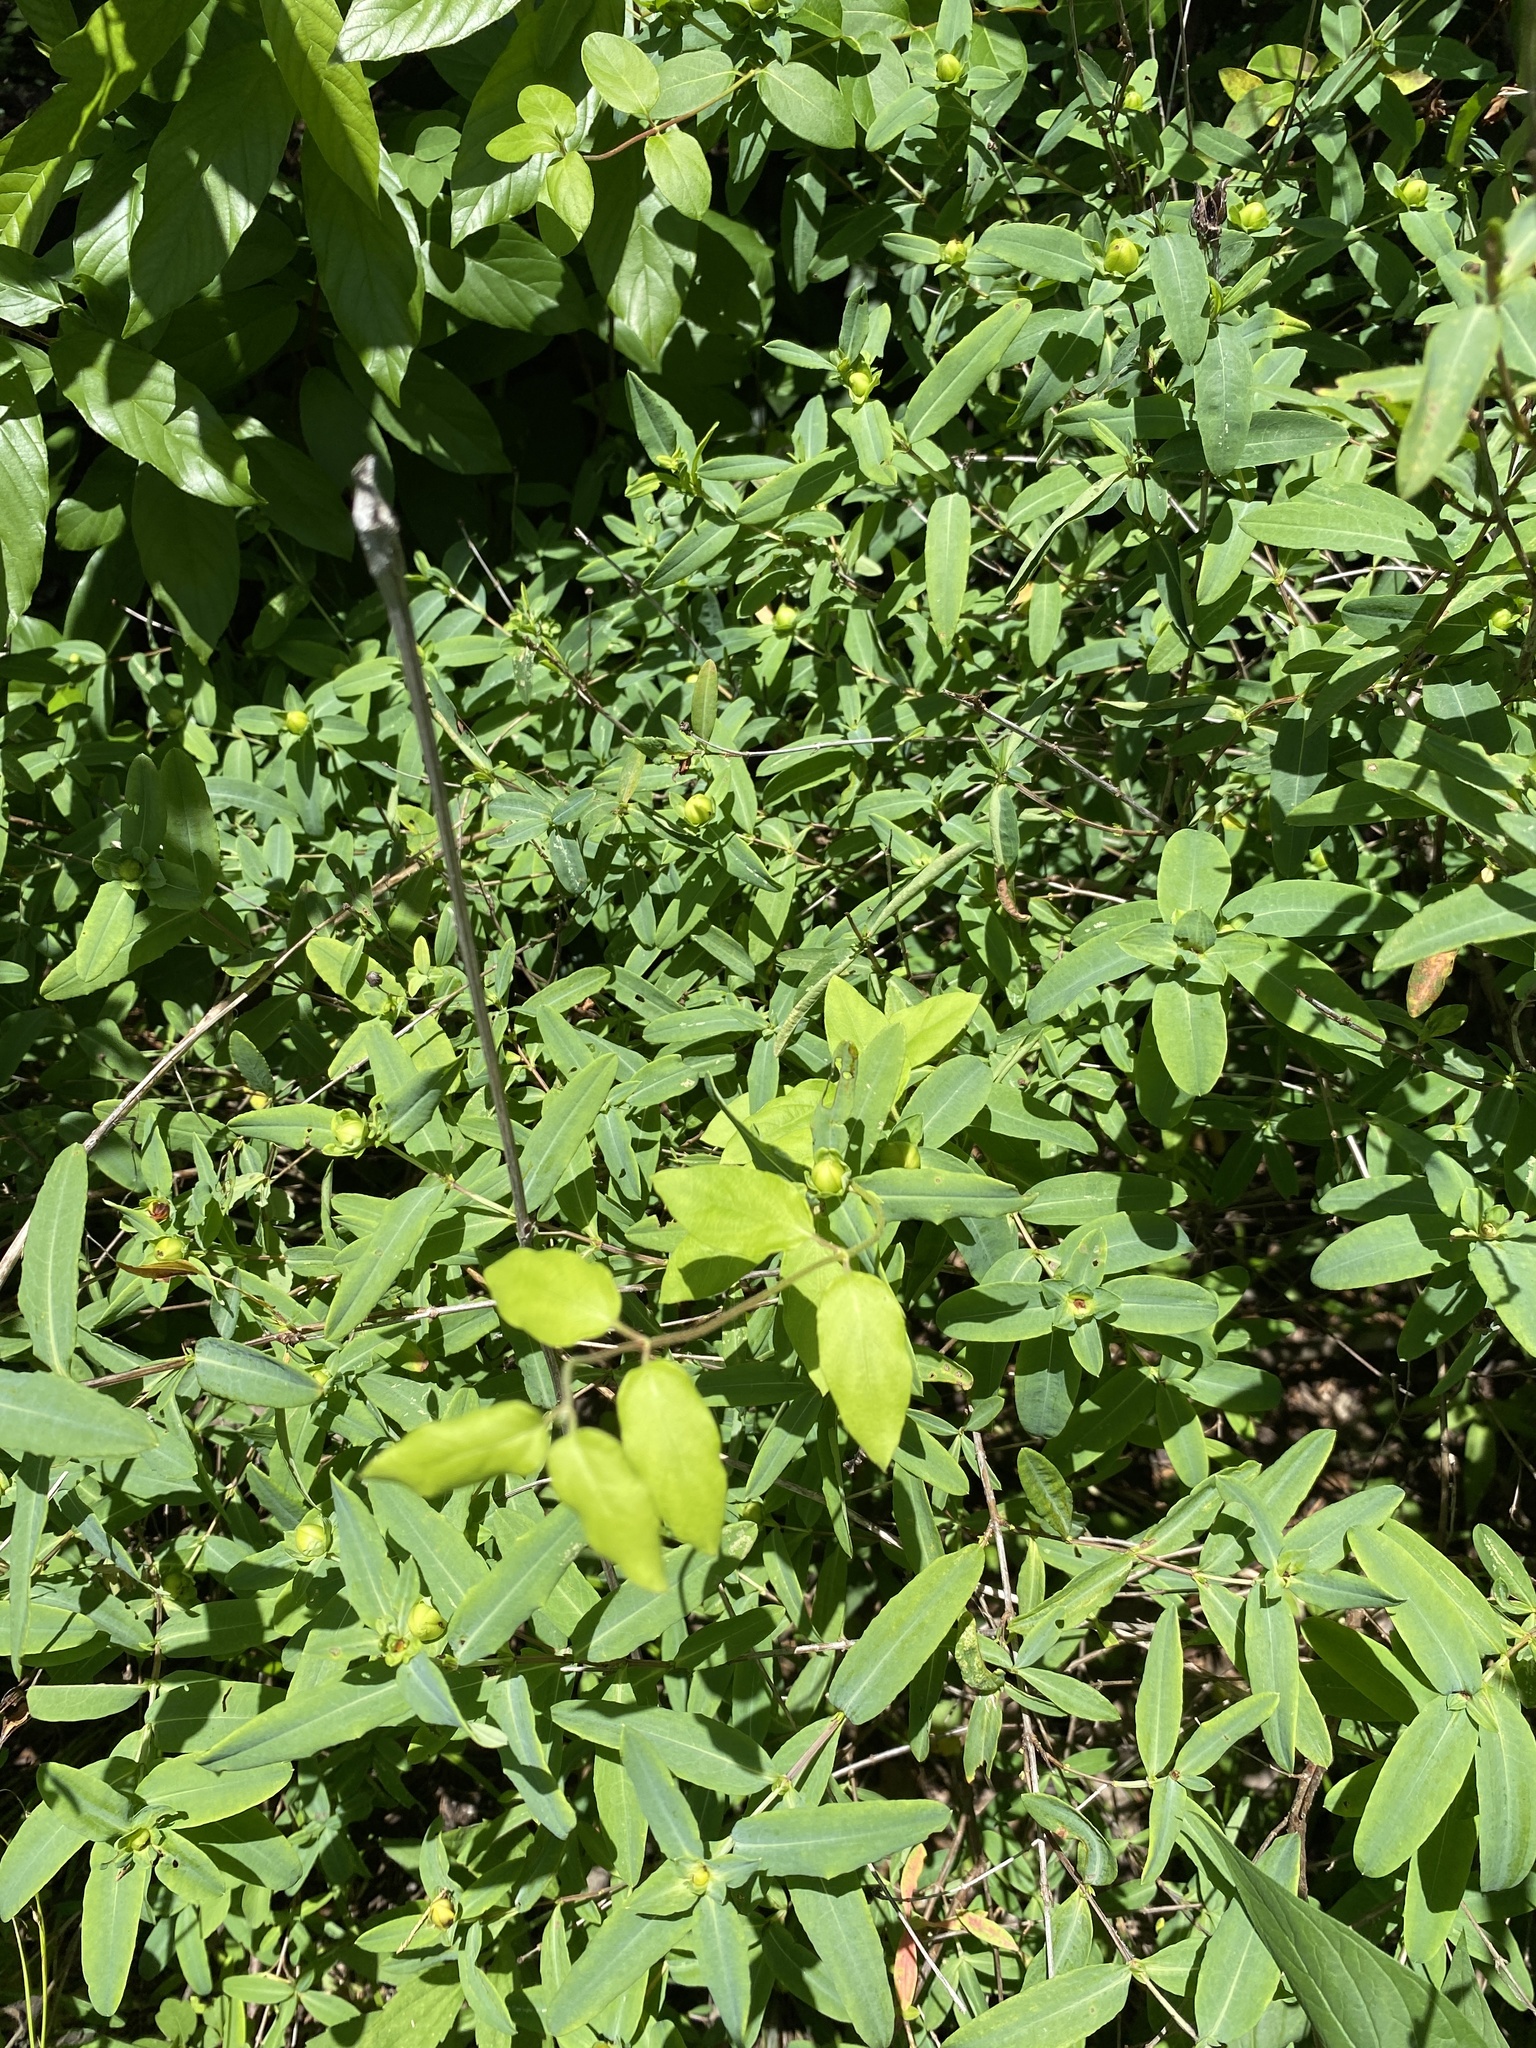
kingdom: Plantae
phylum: Tracheophyta
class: Magnoliopsida
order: Malpighiales
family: Hypericaceae
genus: Hypericum
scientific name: Hypericum frondosum
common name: Golden st. john's-wort
